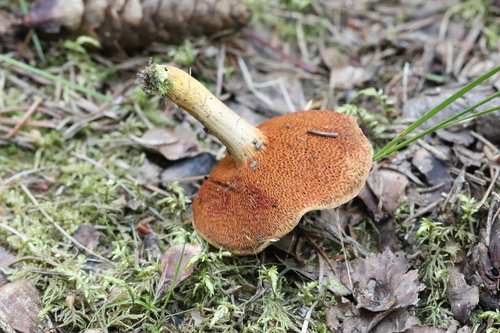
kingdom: Fungi
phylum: Basidiomycota
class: Agaricomycetes
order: Boletales
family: Boletaceae
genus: Chalciporus
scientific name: Chalciporus piperatus
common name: Peppery bolete
